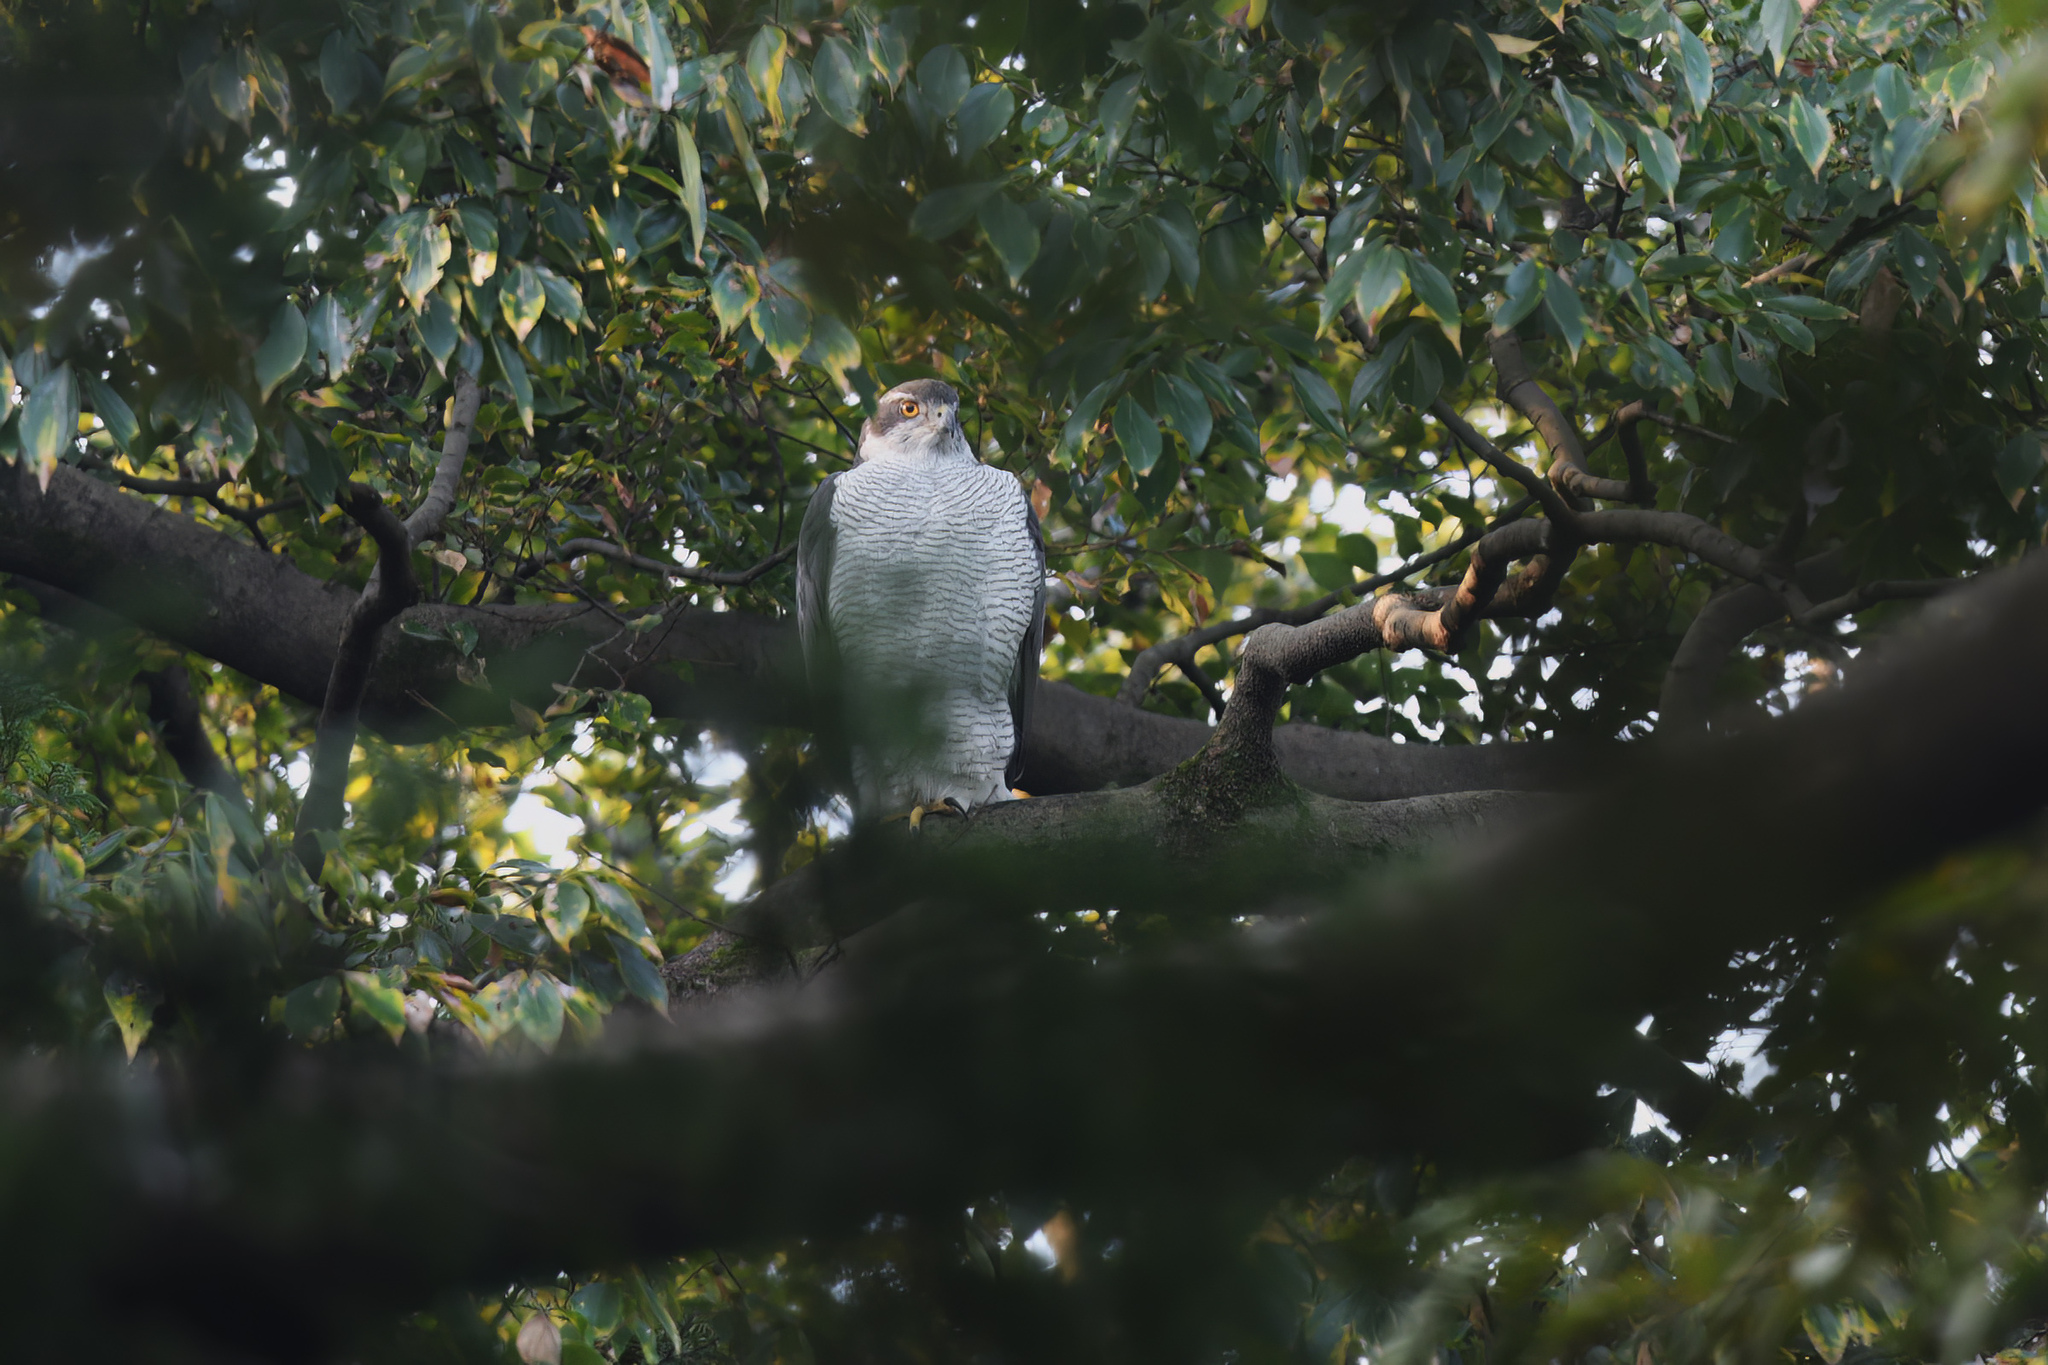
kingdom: Animalia
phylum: Chordata
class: Aves
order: Accipitriformes
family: Accipitridae
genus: Accipiter
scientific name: Accipiter gentilis
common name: Northern goshawk
